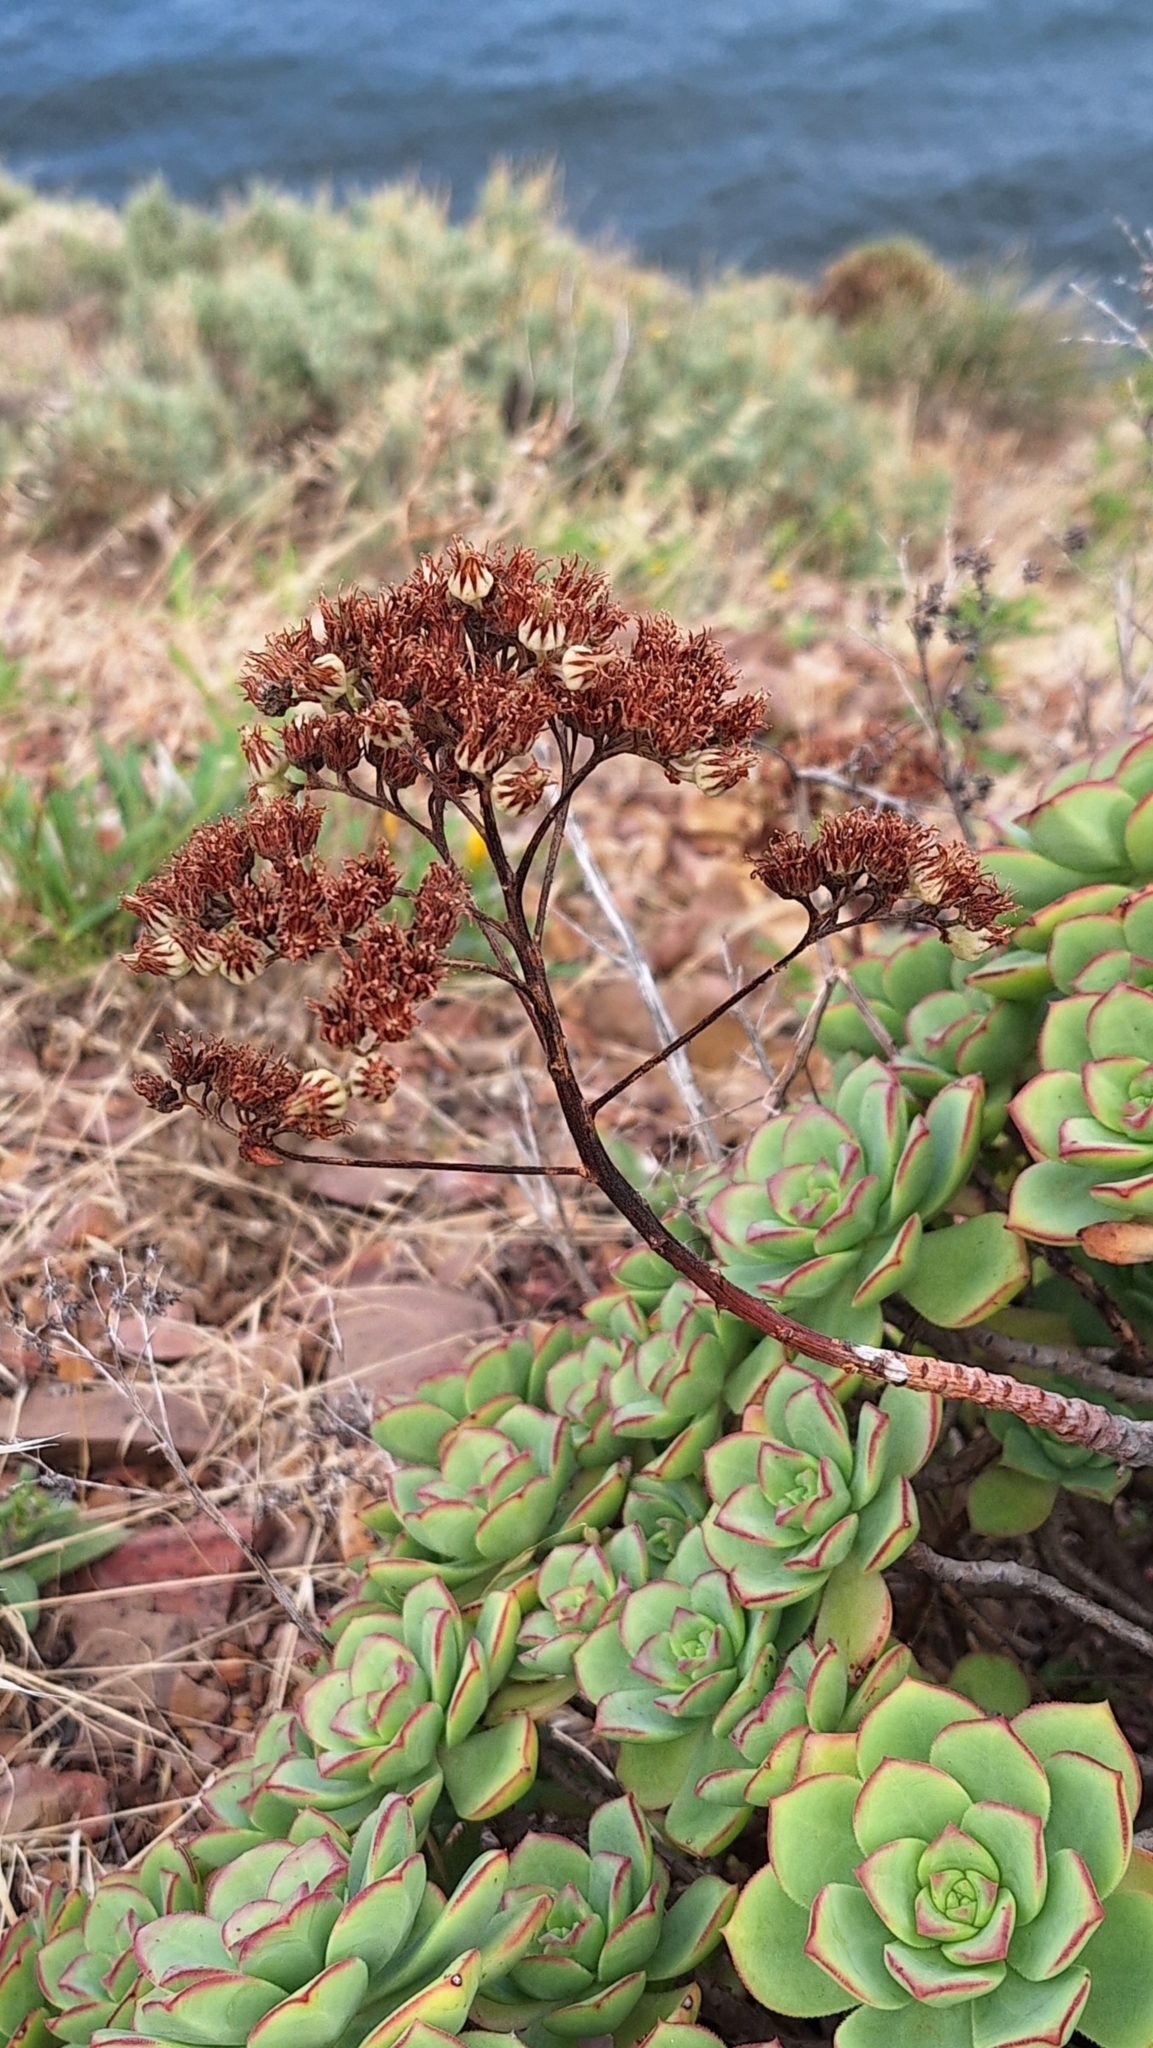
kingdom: Plantae
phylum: Tracheophyta
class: Magnoliopsida
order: Saxifragales
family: Crassulaceae
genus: Aeonium
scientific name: Aeonium haworthii
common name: Haworth's aeonium
